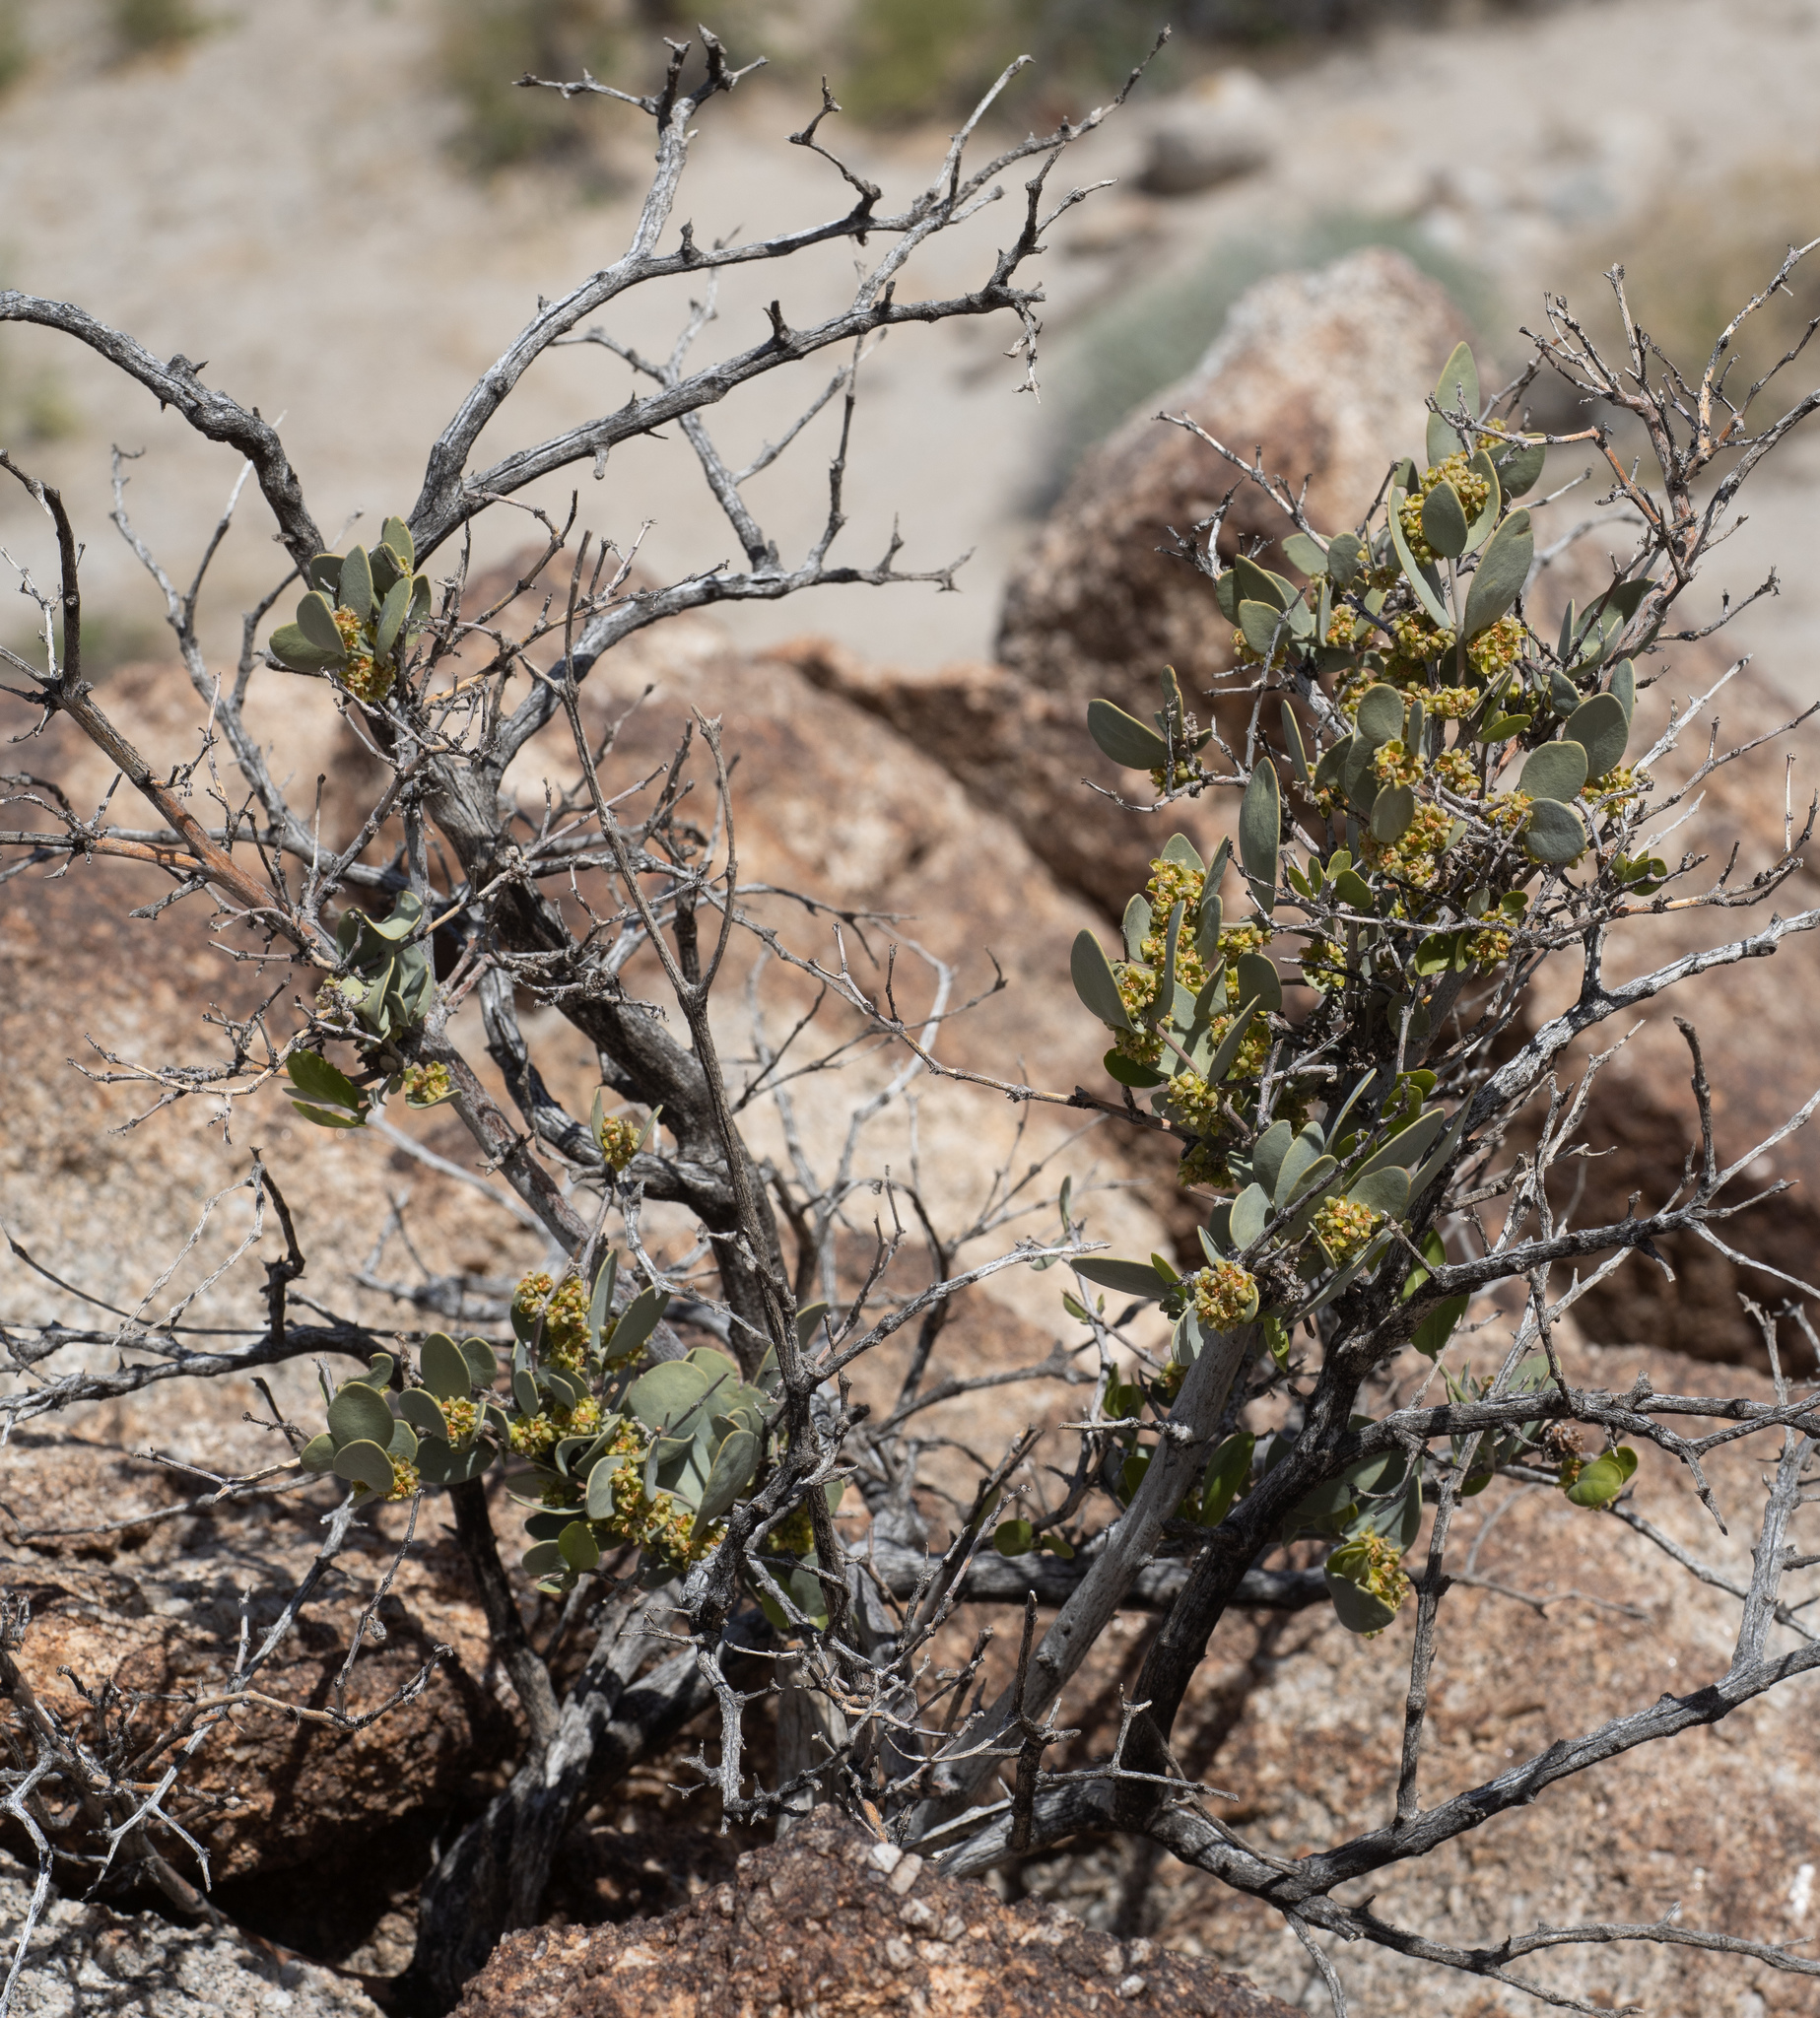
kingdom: Plantae
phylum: Tracheophyta
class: Magnoliopsida
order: Caryophyllales
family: Simmondsiaceae
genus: Simmondsia
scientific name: Simmondsia chinensis
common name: Jojoba
